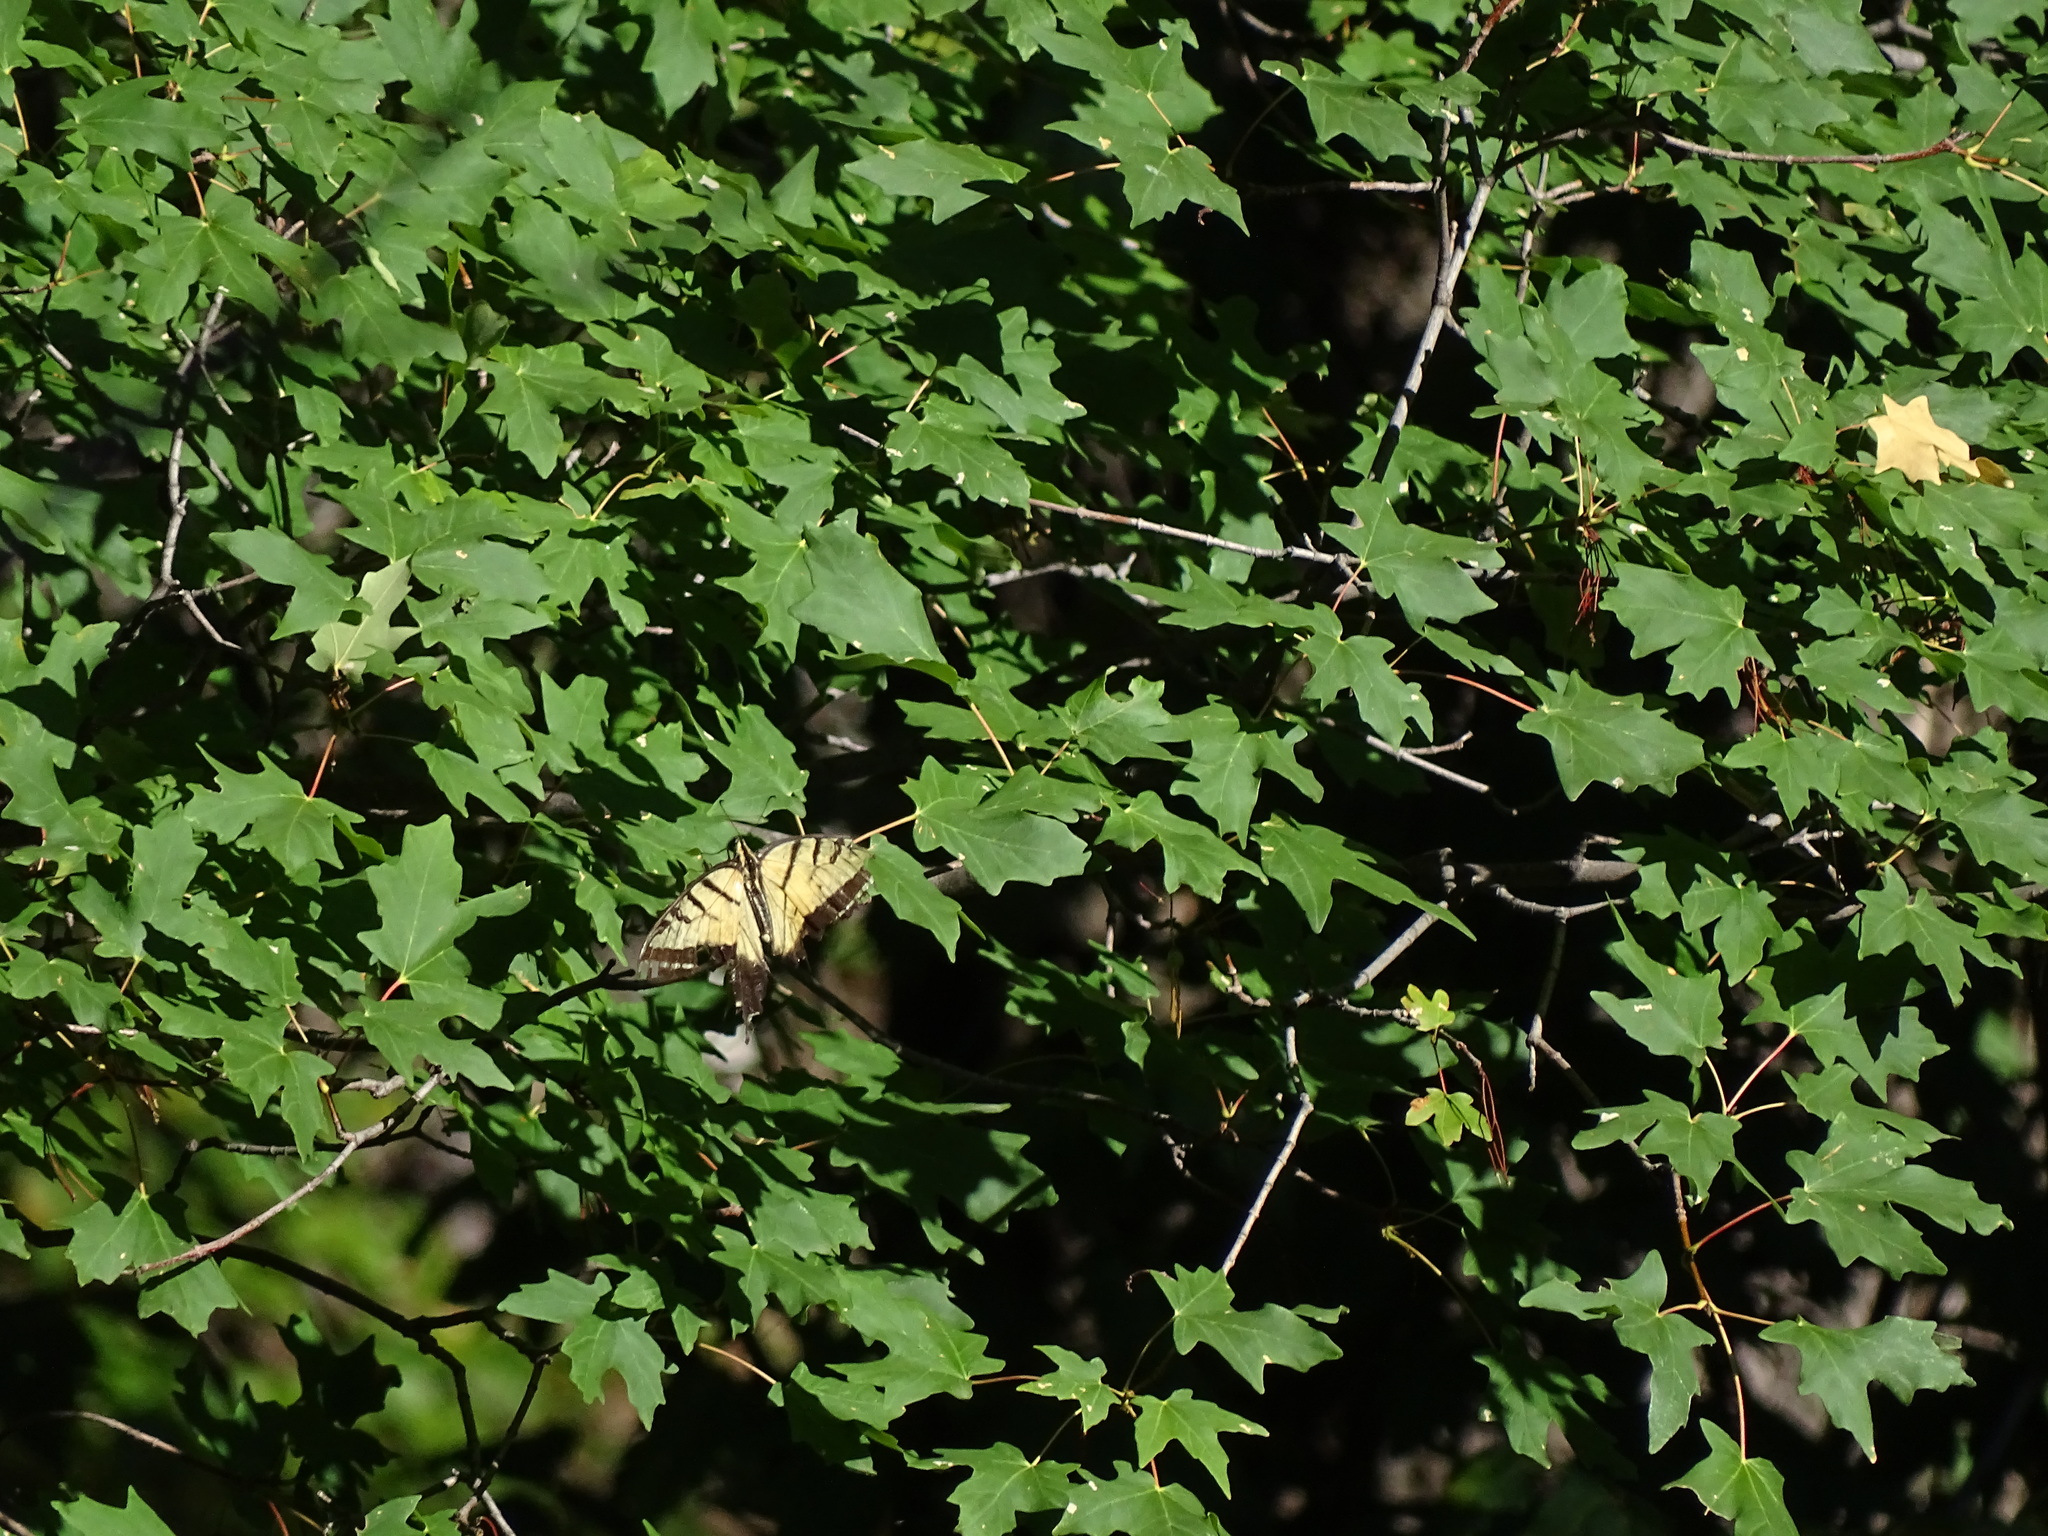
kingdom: Animalia
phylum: Arthropoda
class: Insecta
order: Lepidoptera
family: Papilionidae
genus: Papilio
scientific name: Papilio multicaudata
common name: Two-tailed tiger swallowtail
